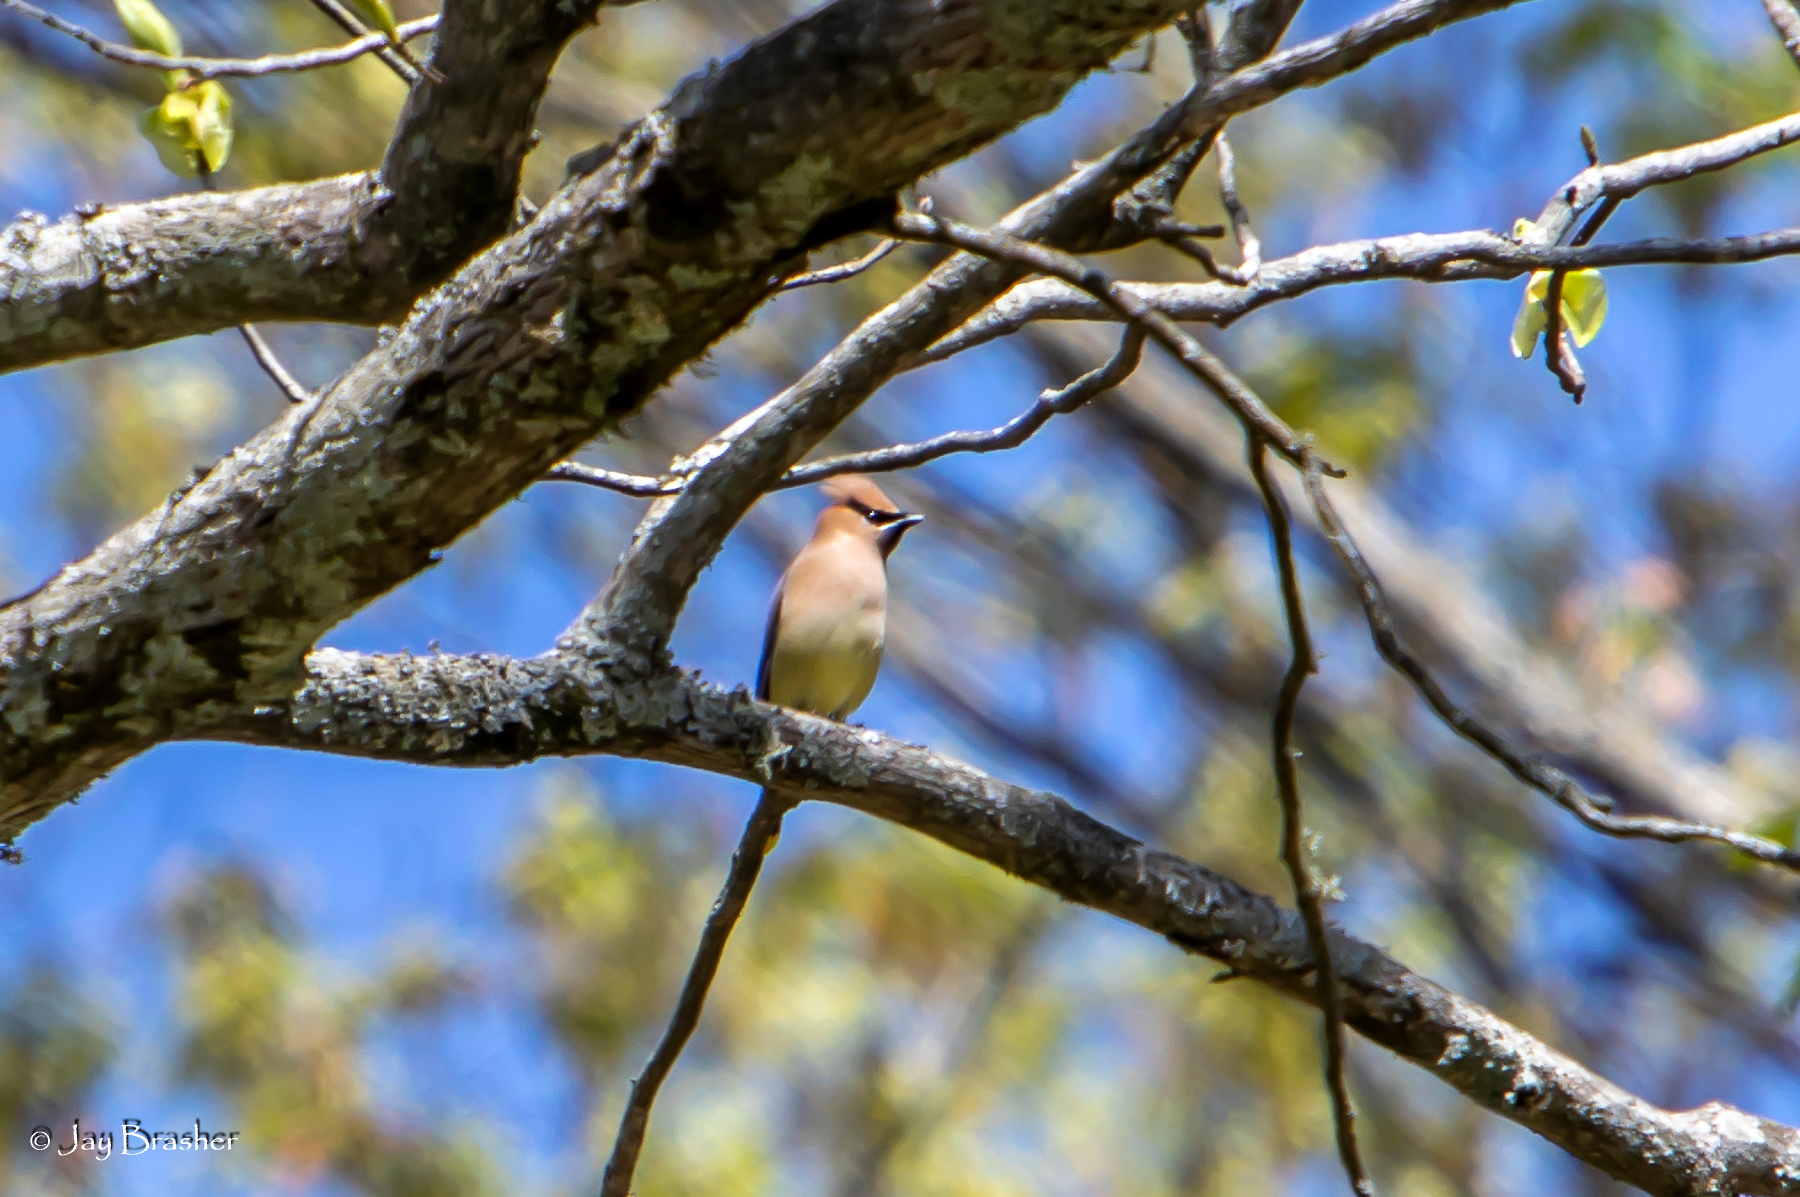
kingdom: Animalia
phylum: Chordata
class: Aves
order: Passeriformes
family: Bombycillidae
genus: Bombycilla
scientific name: Bombycilla cedrorum
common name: Cedar waxwing
